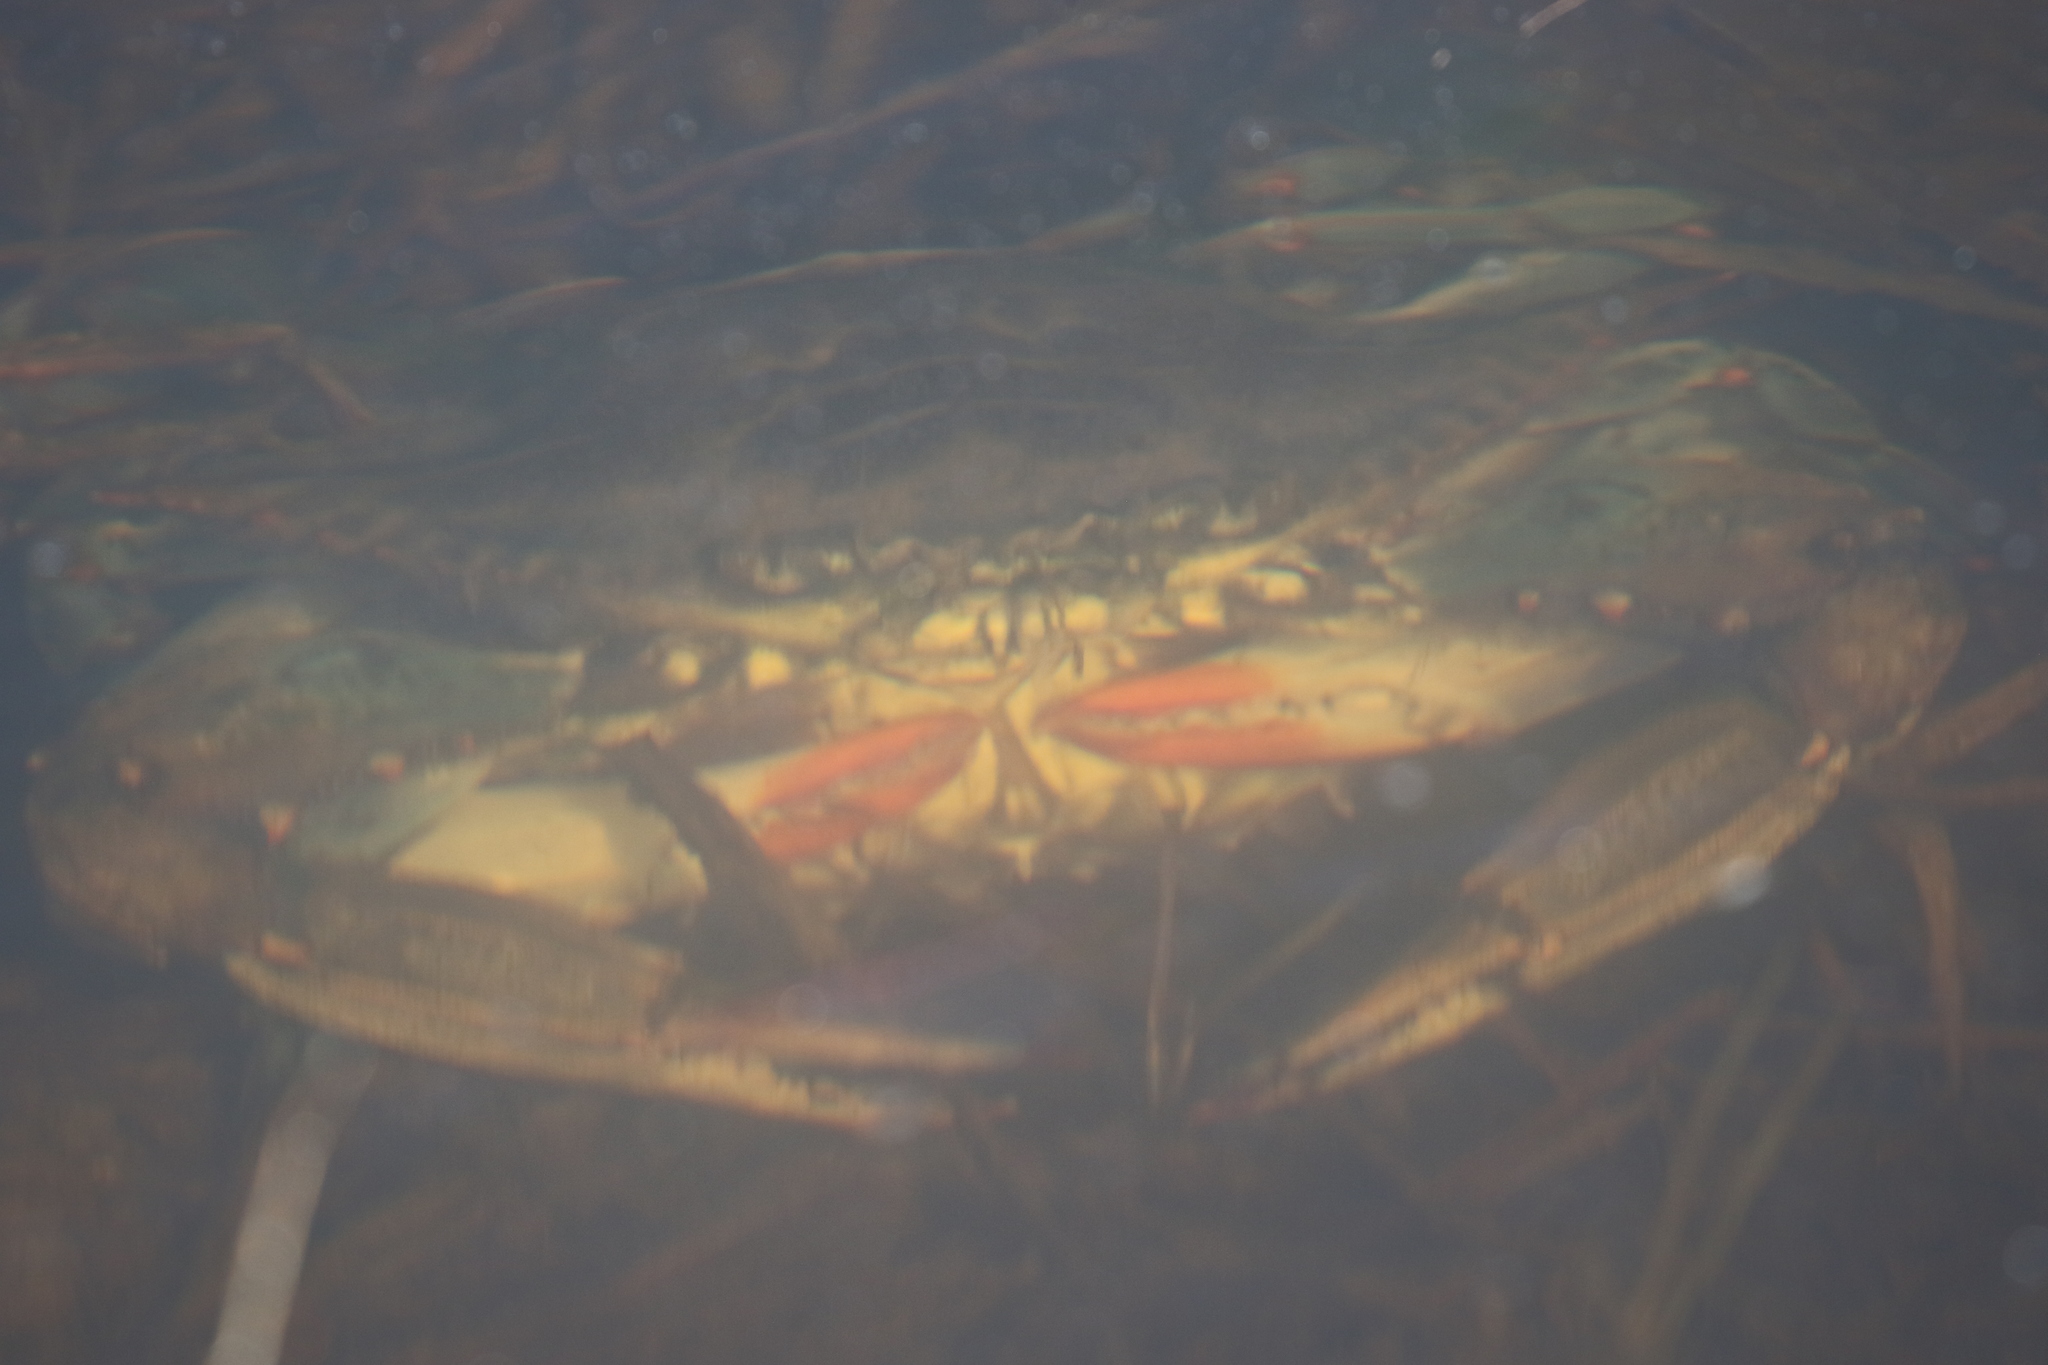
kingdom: Animalia
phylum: Arthropoda
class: Malacostraca
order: Decapoda
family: Portunidae
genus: Callinectes
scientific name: Callinectes sapidus
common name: Blue crab
